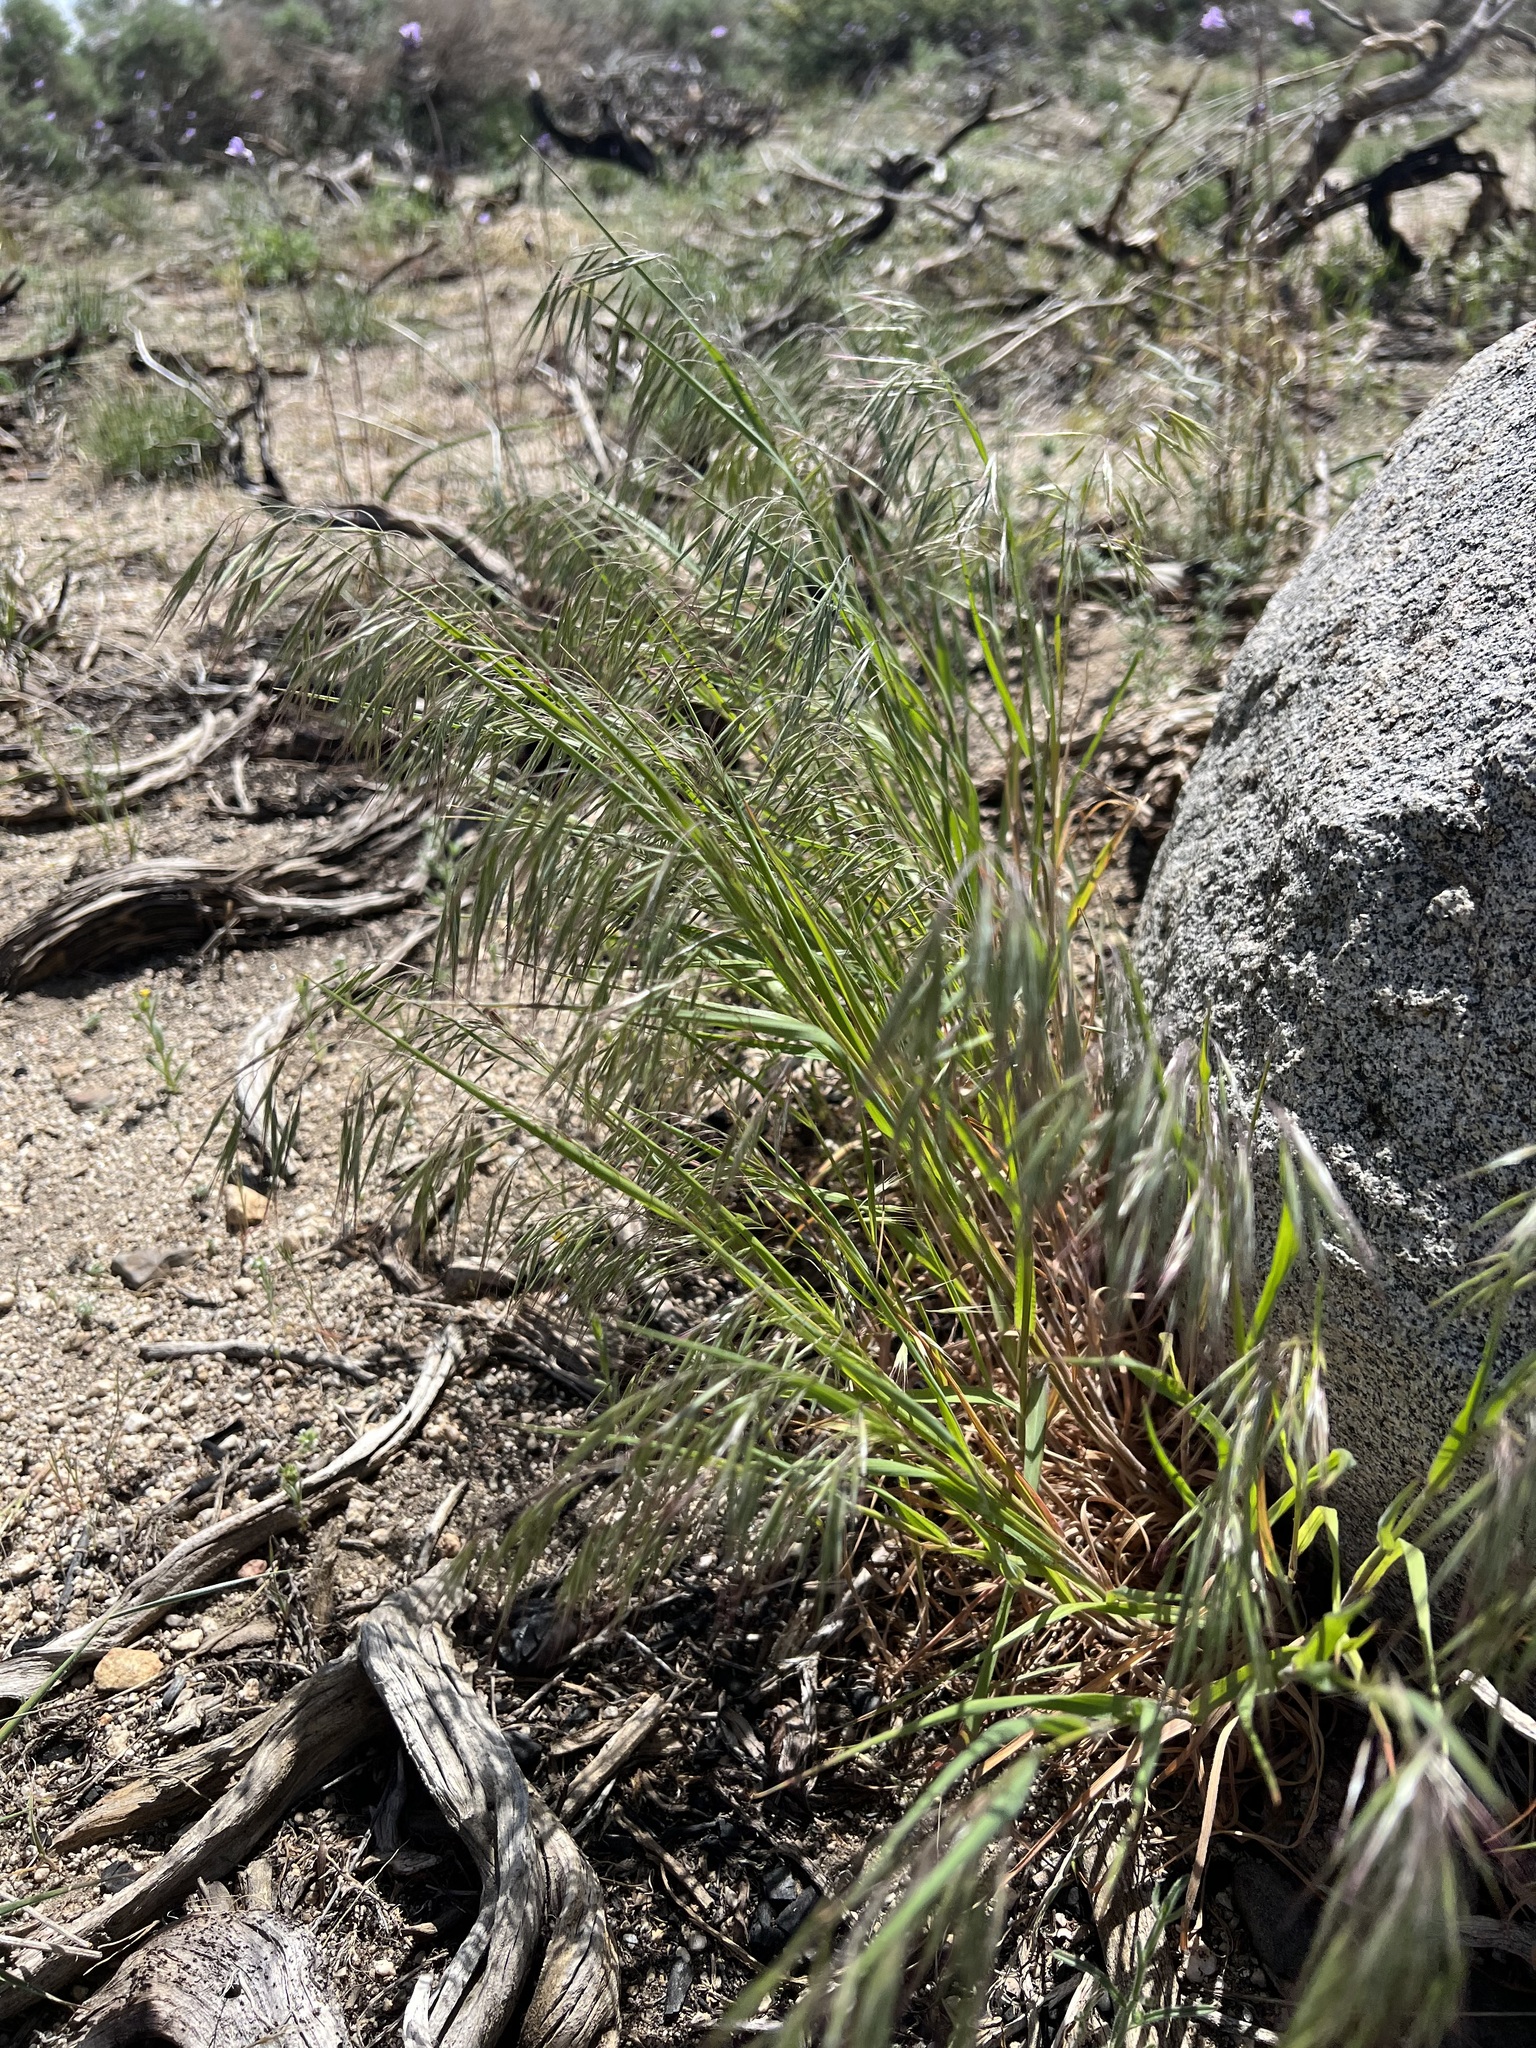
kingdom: Plantae
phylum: Tracheophyta
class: Liliopsida
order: Poales
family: Poaceae
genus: Bromus
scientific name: Bromus tectorum
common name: Cheatgrass
